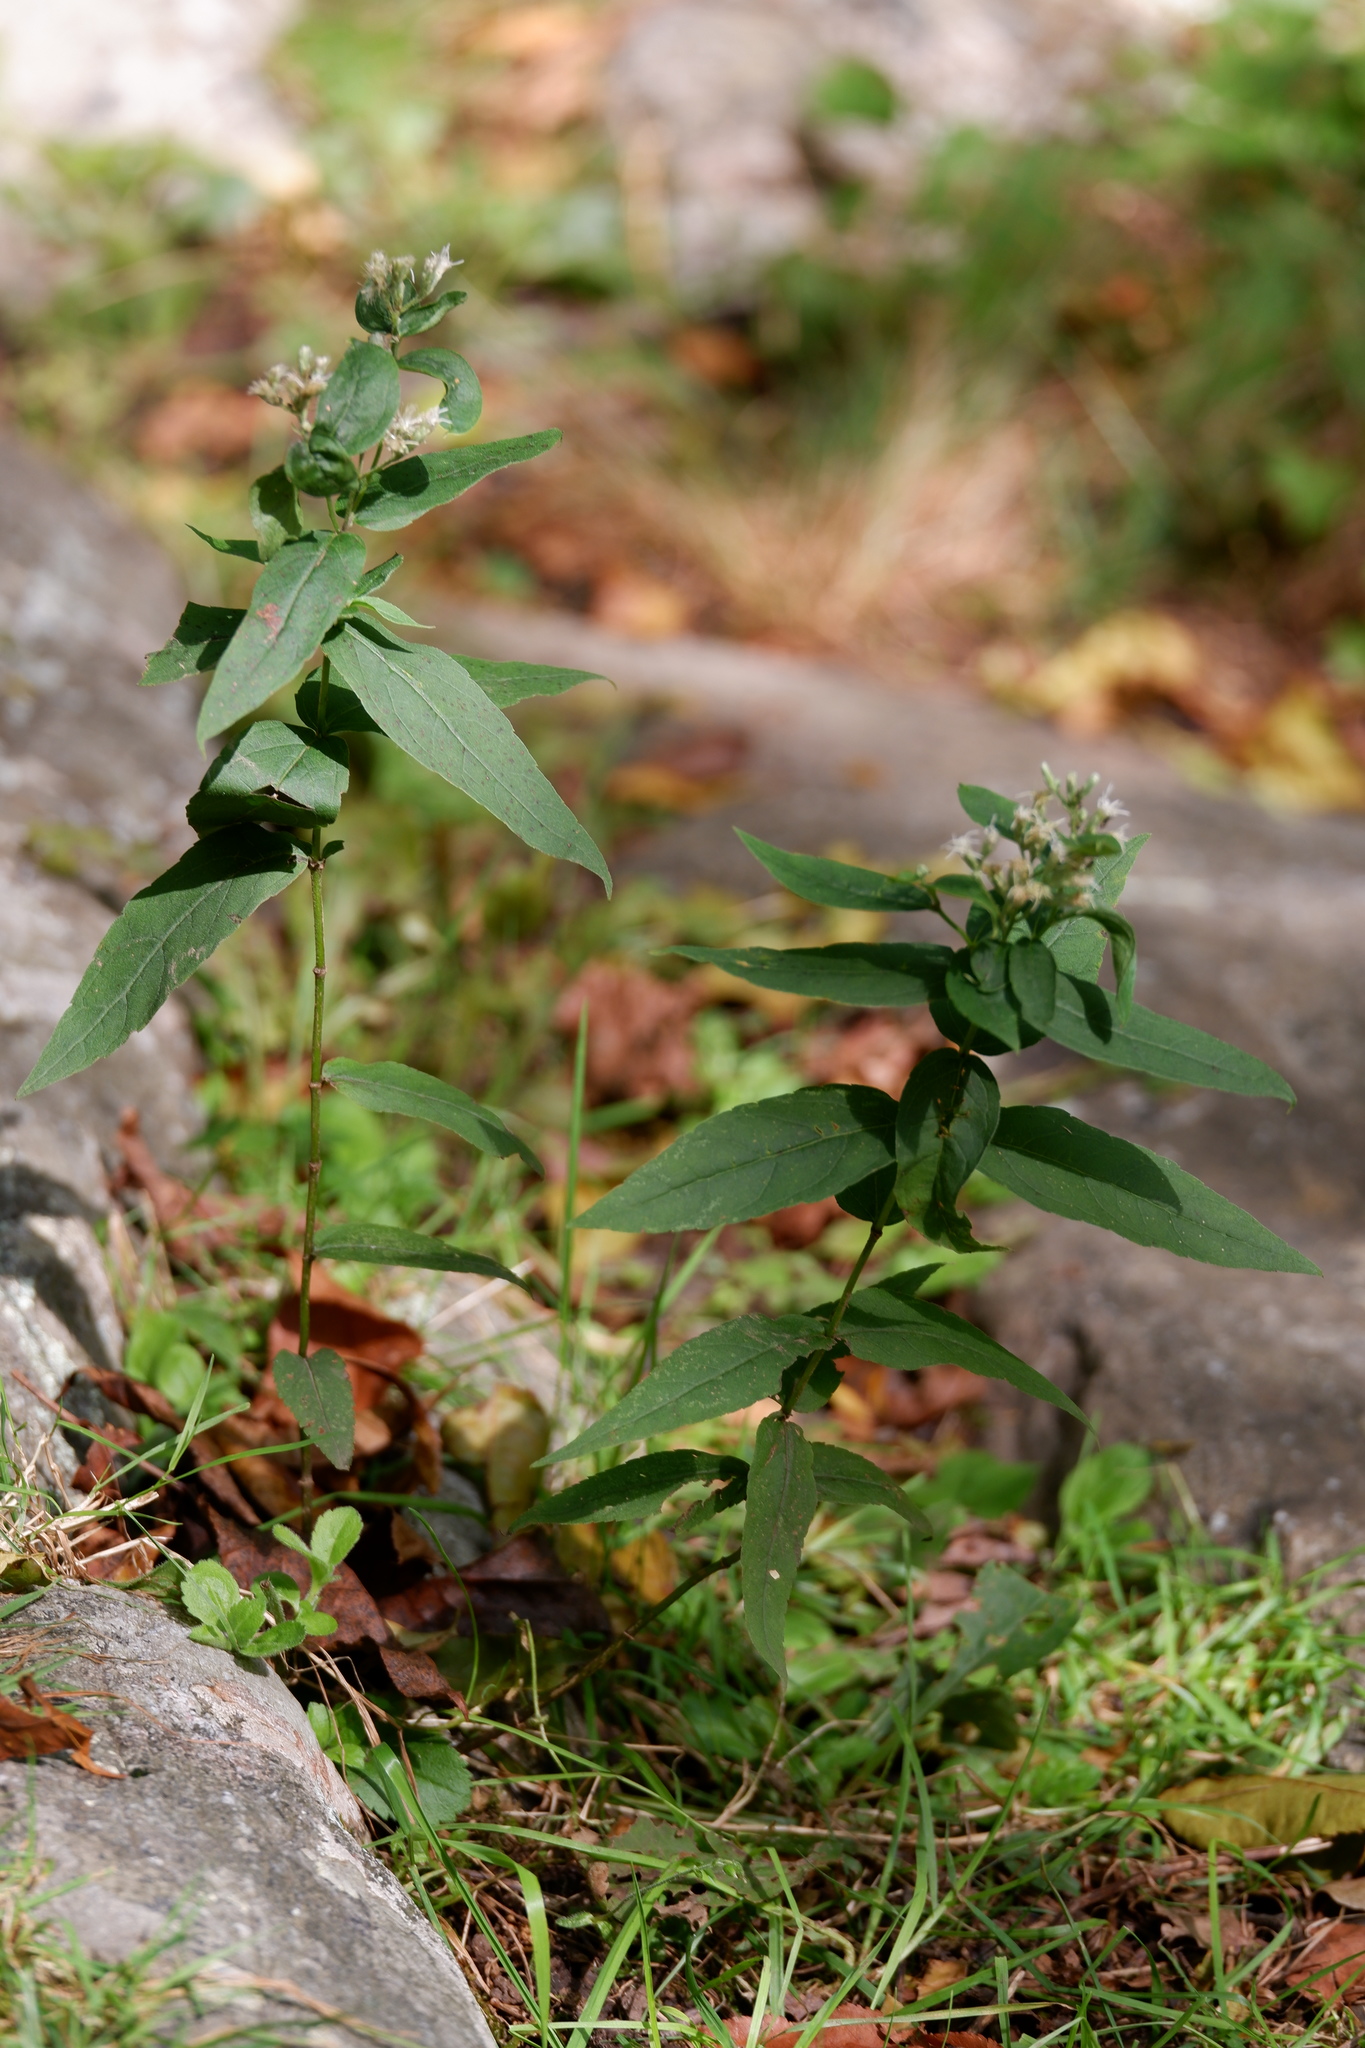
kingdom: Plantae
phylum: Tracheophyta
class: Magnoliopsida
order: Asterales
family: Asteraceae
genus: Eupatorium
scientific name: Eupatorium sessilifolium
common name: Upland boneset
